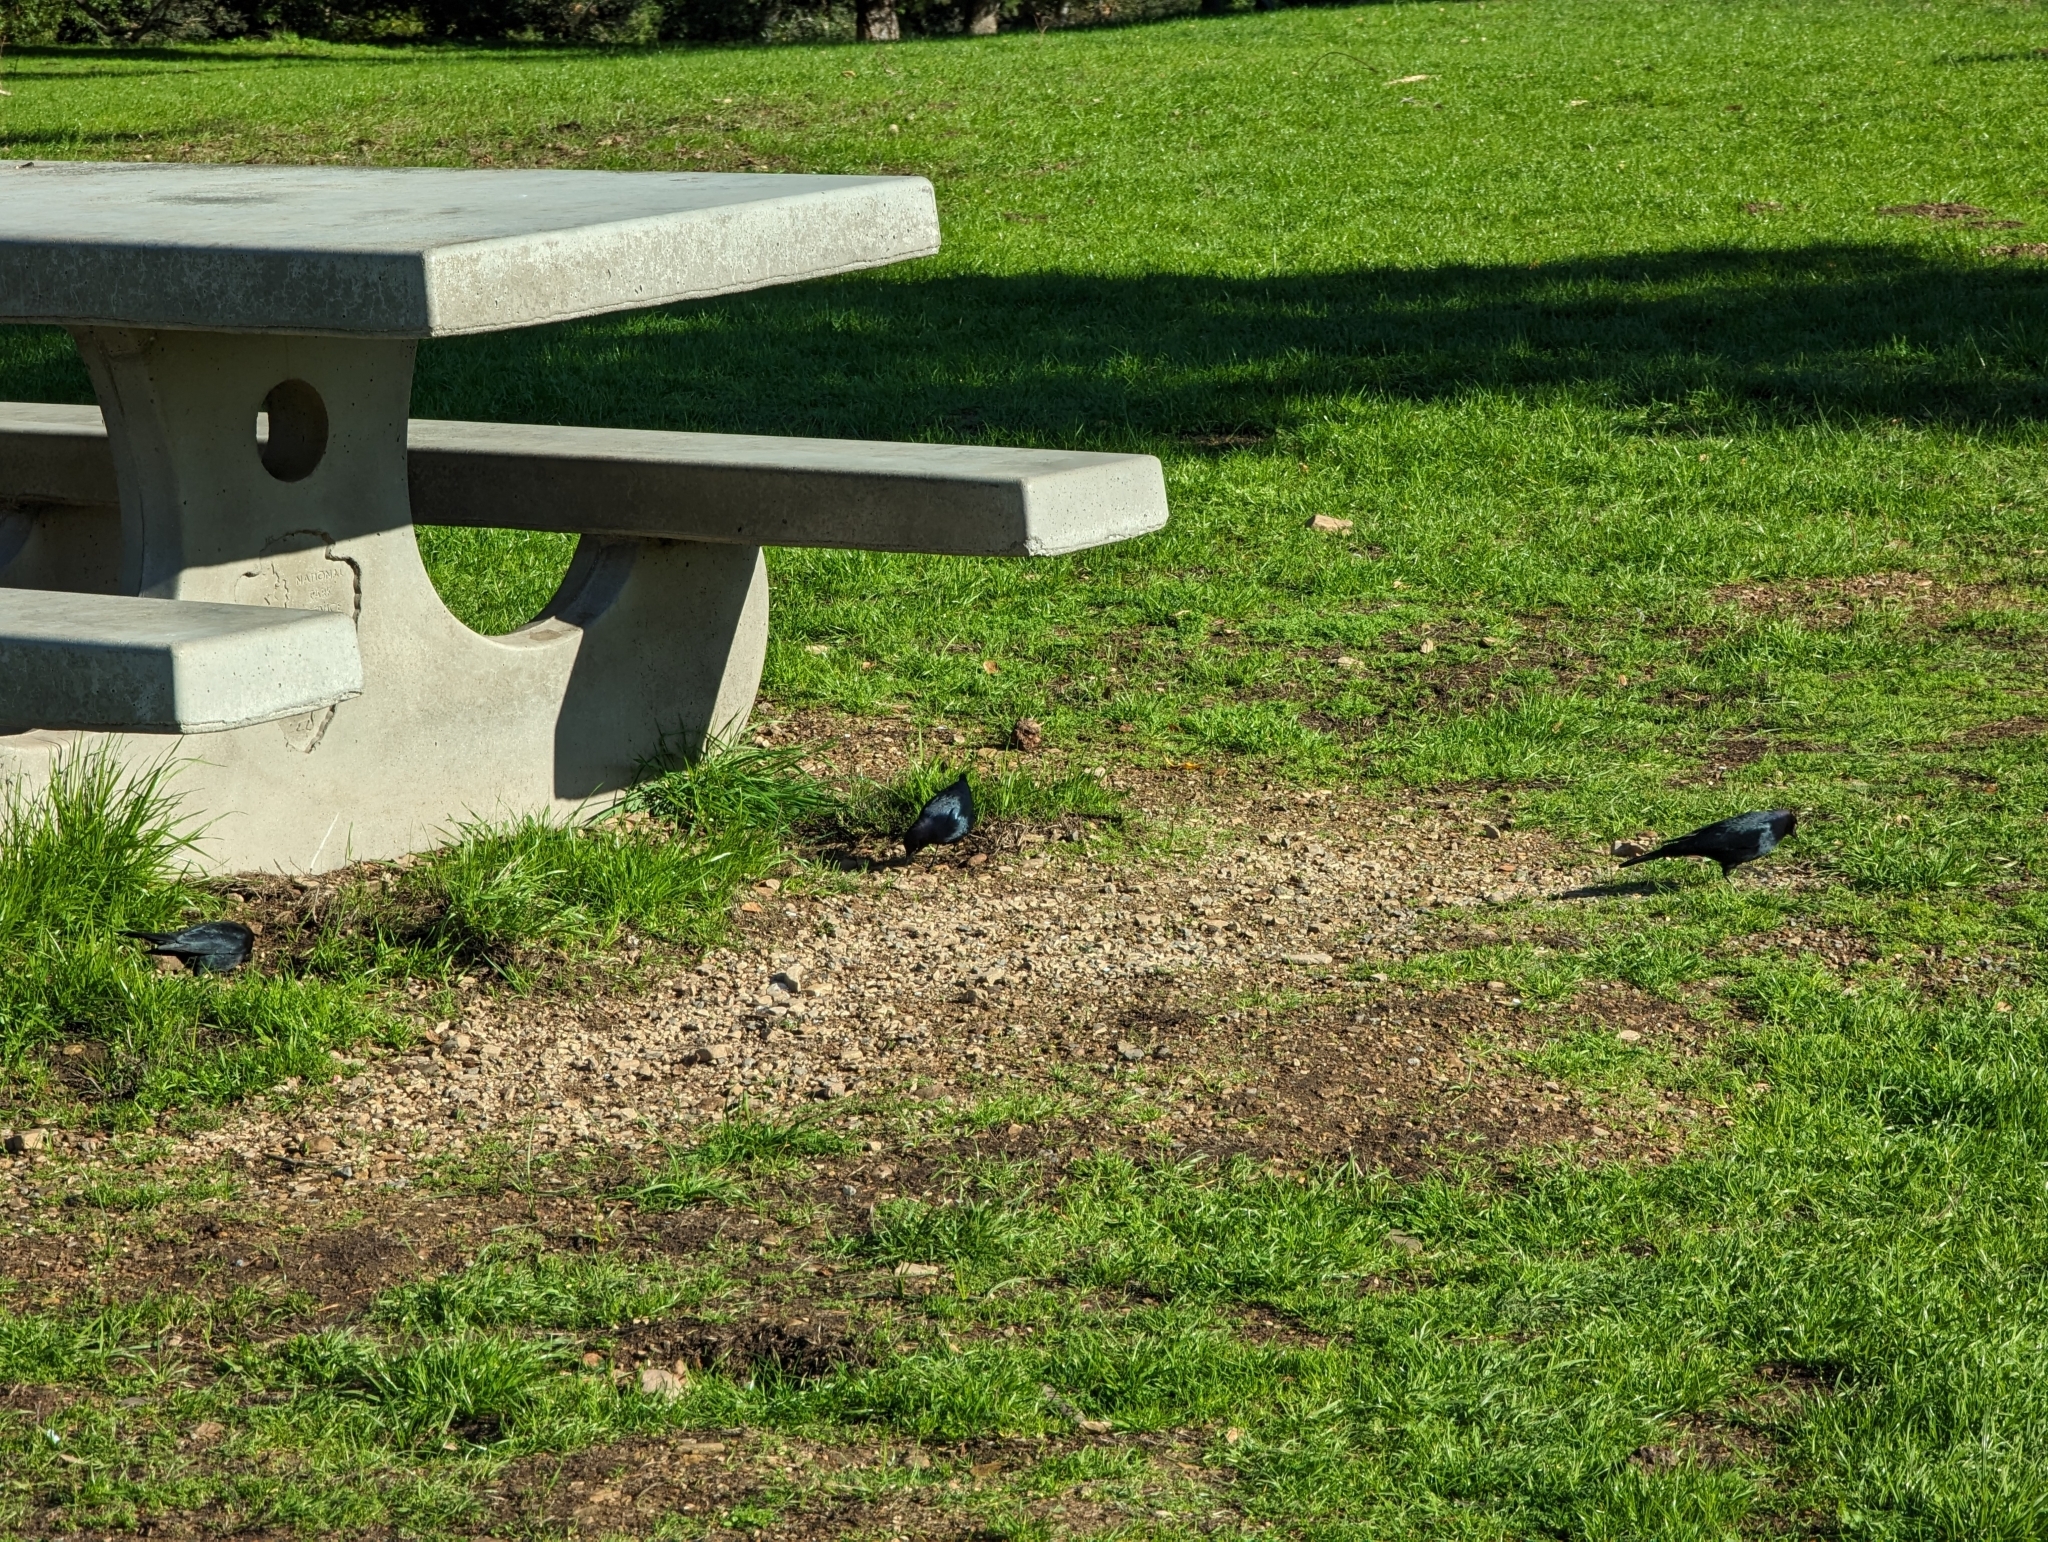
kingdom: Animalia
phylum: Chordata
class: Aves
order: Passeriformes
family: Icteridae
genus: Euphagus
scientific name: Euphagus cyanocephalus
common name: Brewer's blackbird
